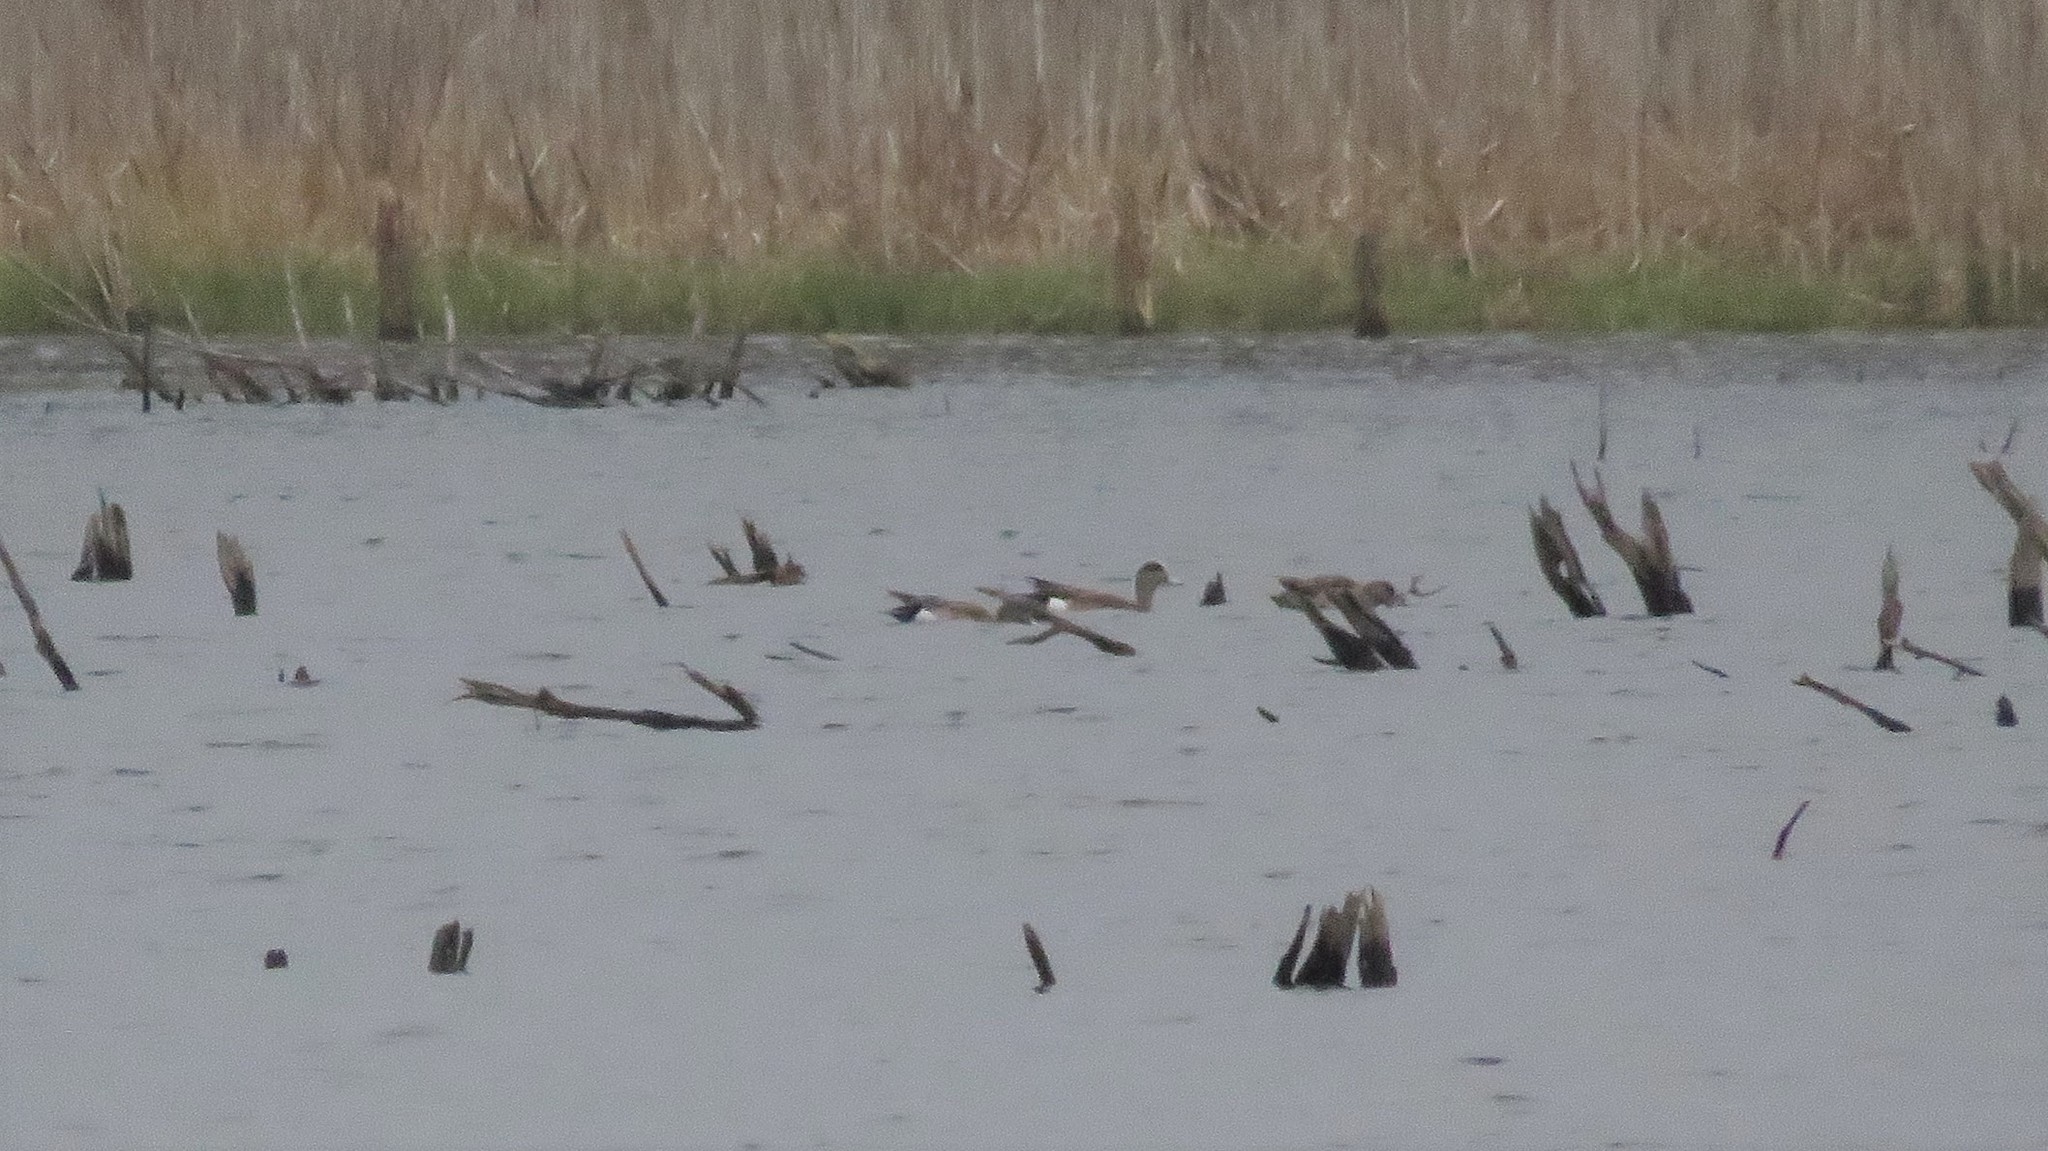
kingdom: Animalia
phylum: Chordata
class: Aves
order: Anseriformes
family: Anatidae
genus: Mareca
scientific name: Mareca americana
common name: American wigeon
